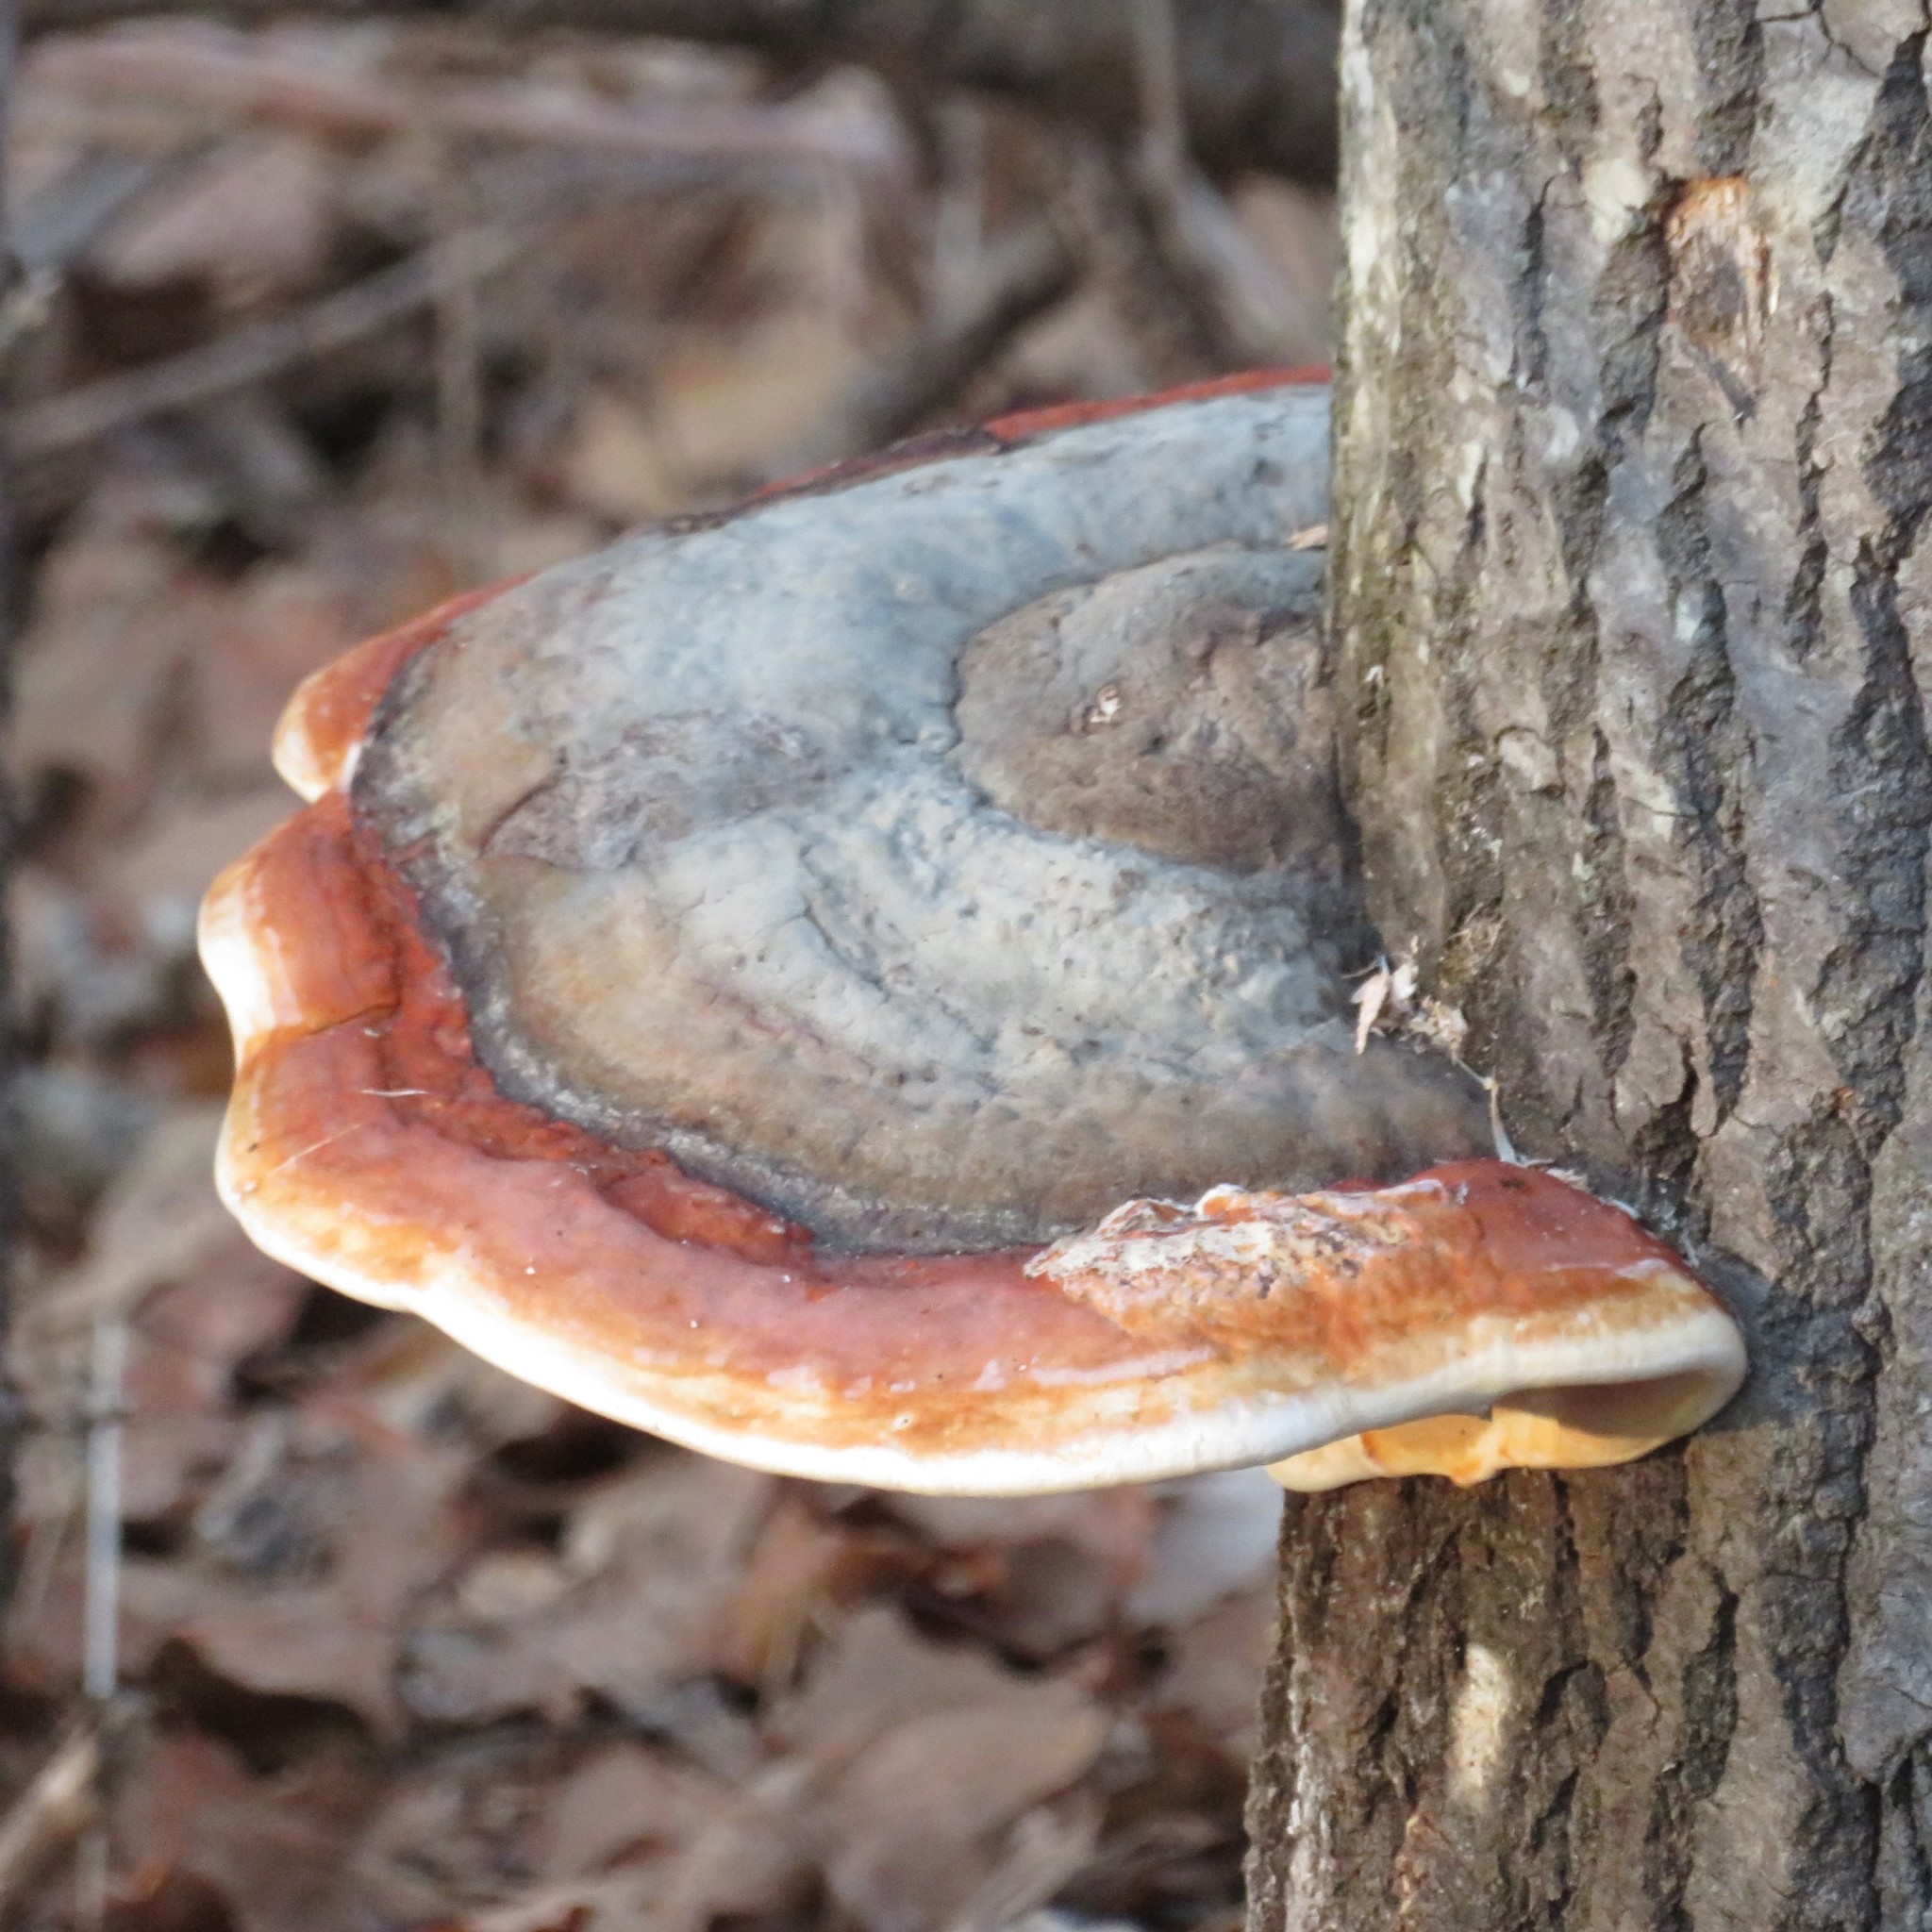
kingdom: Fungi
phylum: Basidiomycota
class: Agaricomycetes
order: Polyporales
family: Fomitopsidaceae
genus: Fomitopsis
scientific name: Fomitopsis mounceae
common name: Northern red belt
